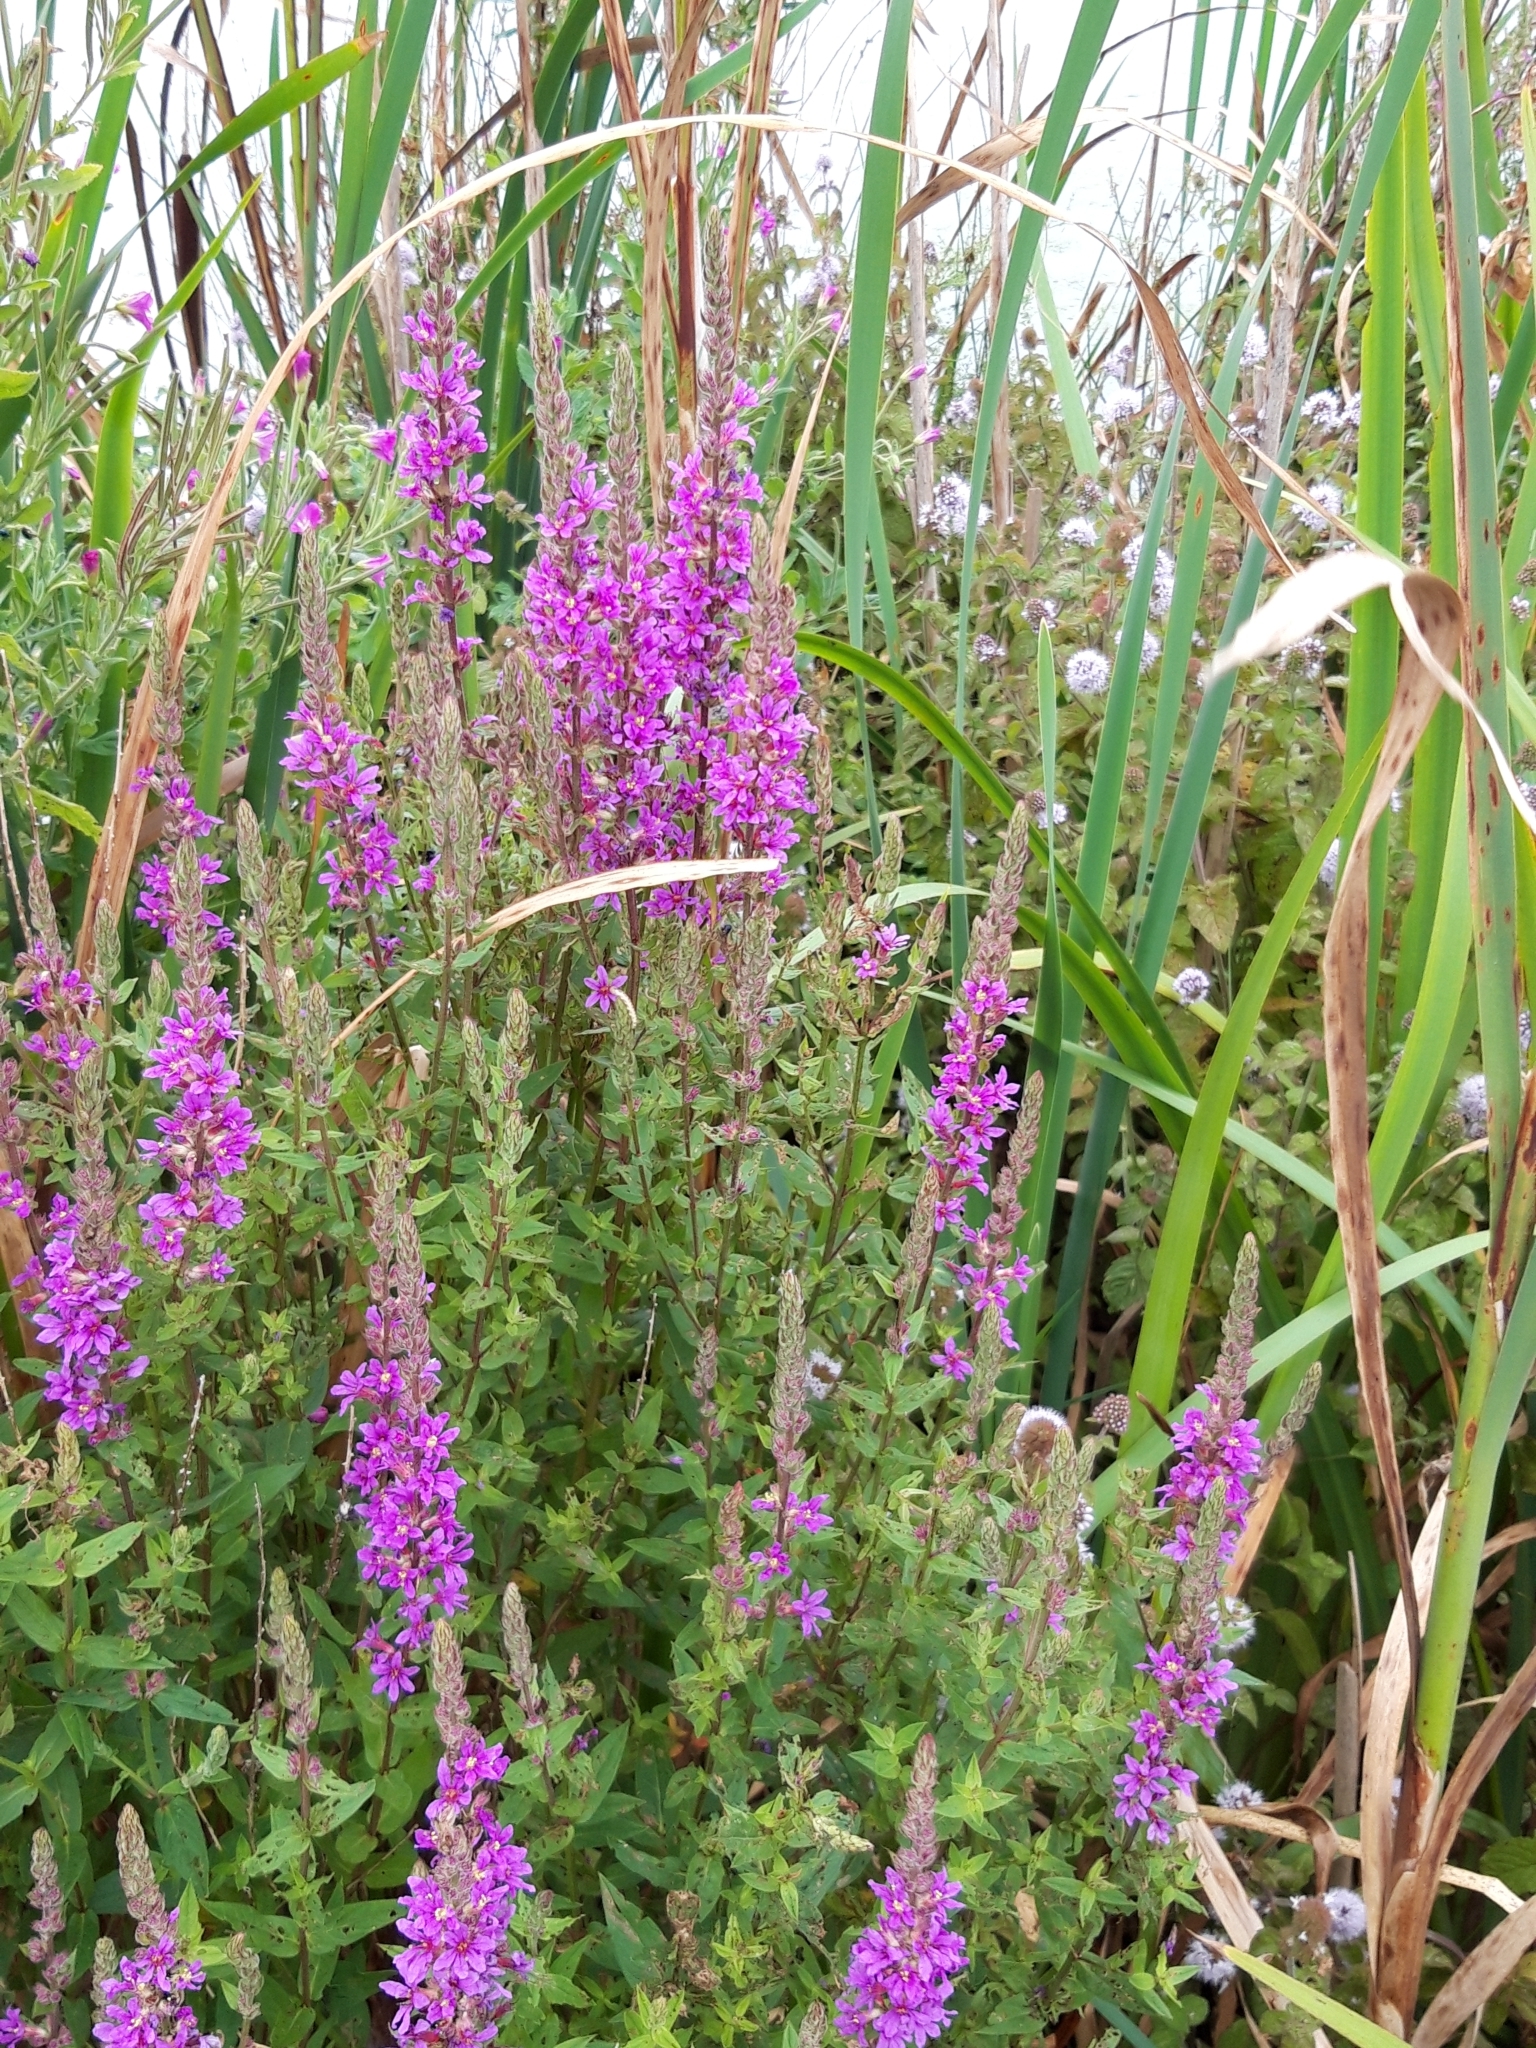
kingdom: Plantae
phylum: Tracheophyta
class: Magnoliopsida
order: Myrtales
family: Lythraceae
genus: Lythrum
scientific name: Lythrum salicaria
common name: Purple loosestrife
